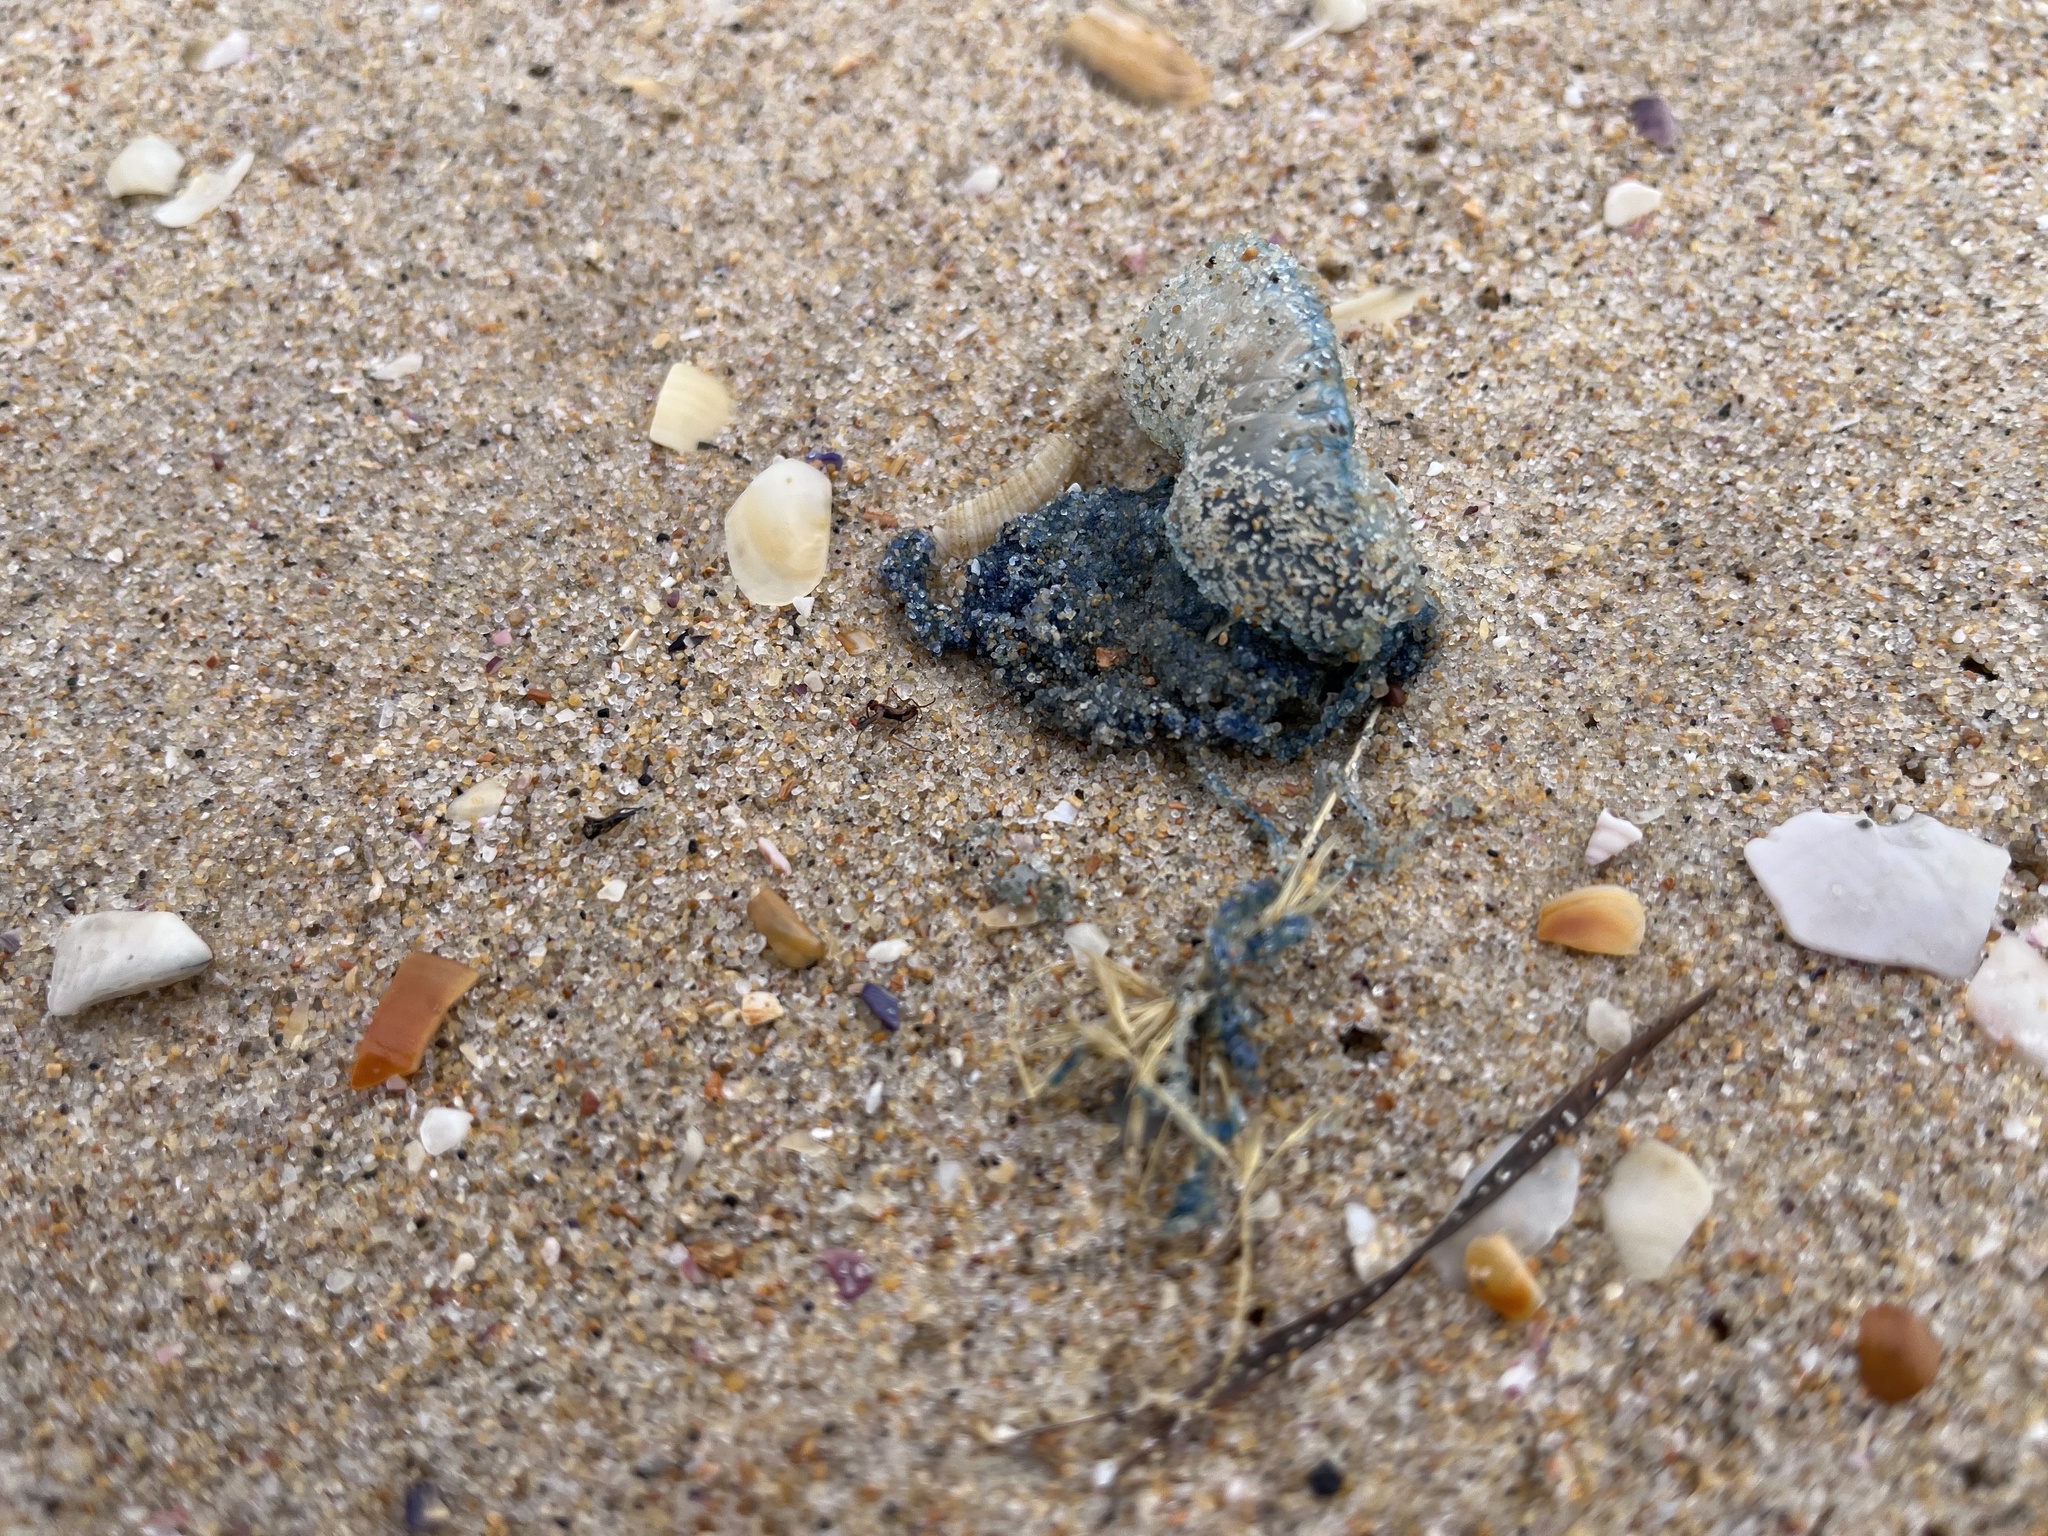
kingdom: Animalia
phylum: Cnidaria
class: Hydrozoa
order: Siphonophorae
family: Physaliidae
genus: Physalia
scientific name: Physalia physalis
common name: Portuguese man-of-war
